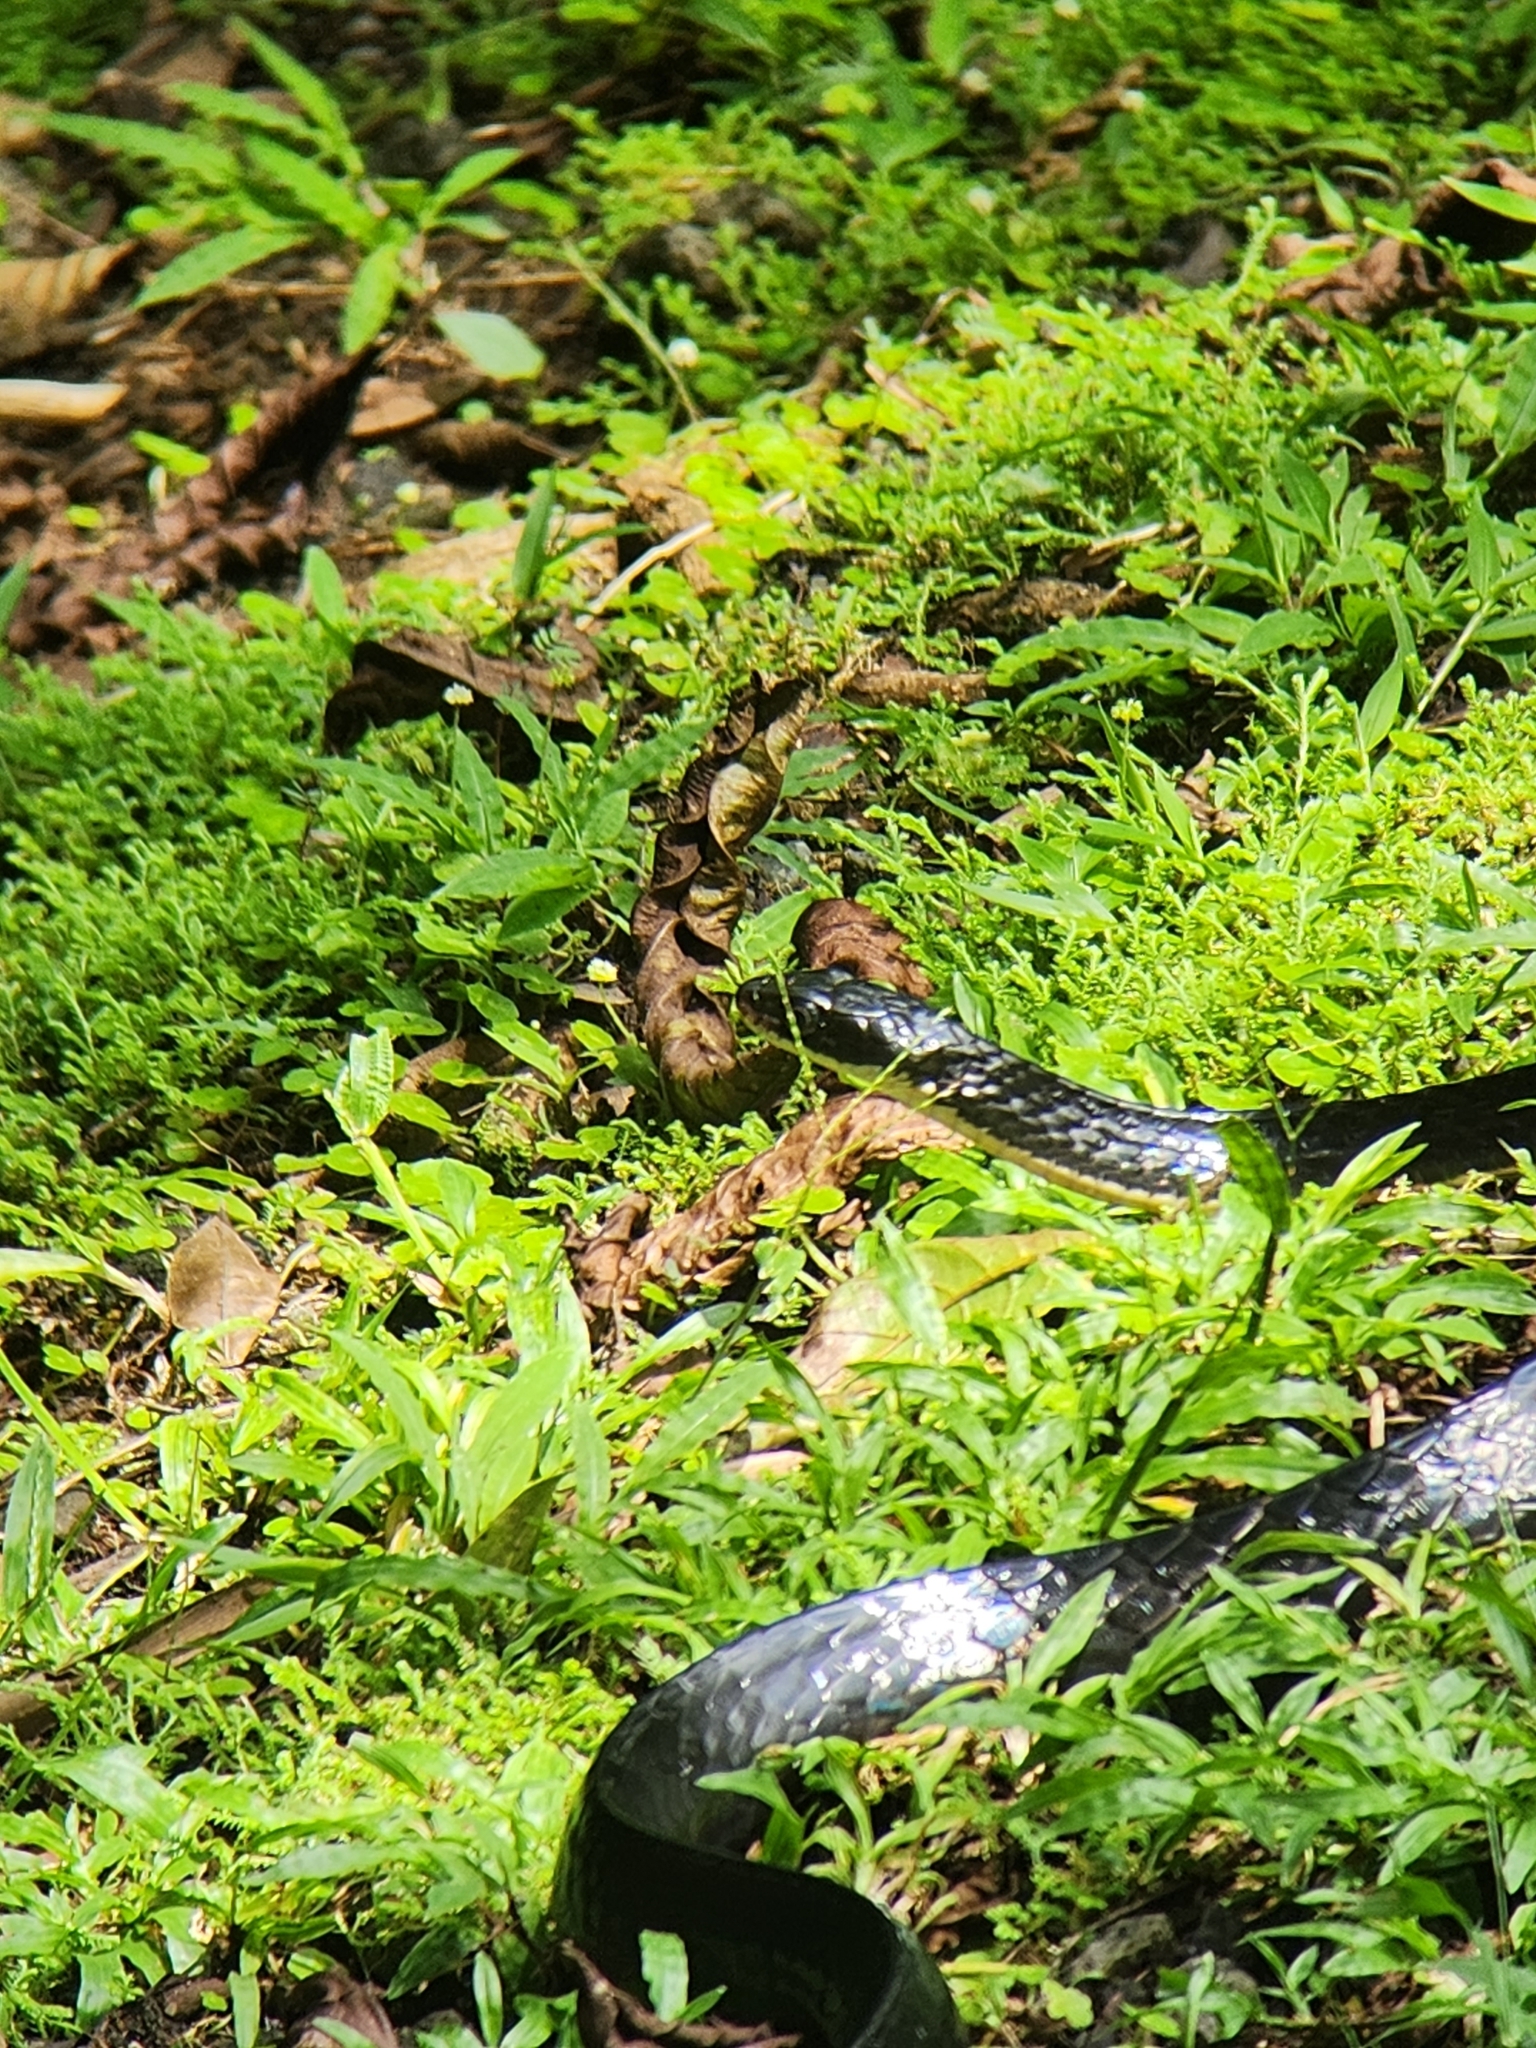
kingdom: Animalia
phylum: Chordata
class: Squamata
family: Colubridae
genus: Chironius
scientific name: Chironius grandisquamis
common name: Ecuador sipo
